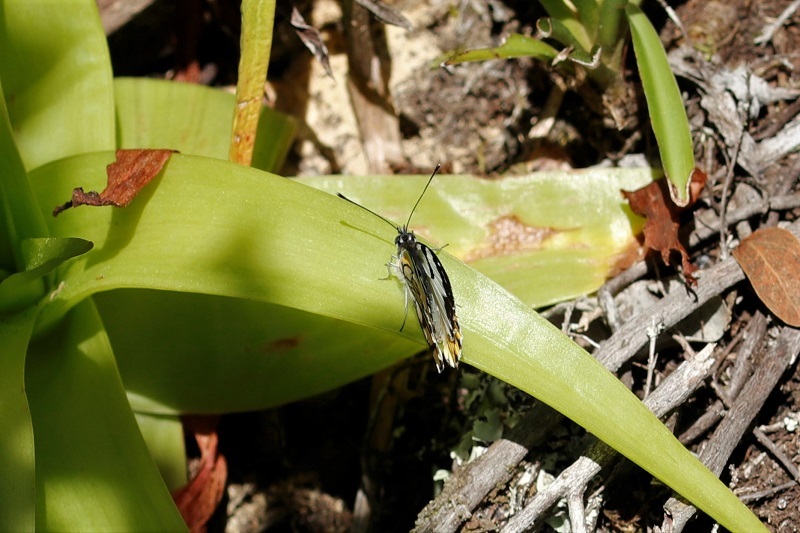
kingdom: Animalia
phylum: Arthropoda
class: Insecta
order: Lepidoptera
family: Pieridae
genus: Belenois
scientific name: Belenois zochalia
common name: Forest caper white
